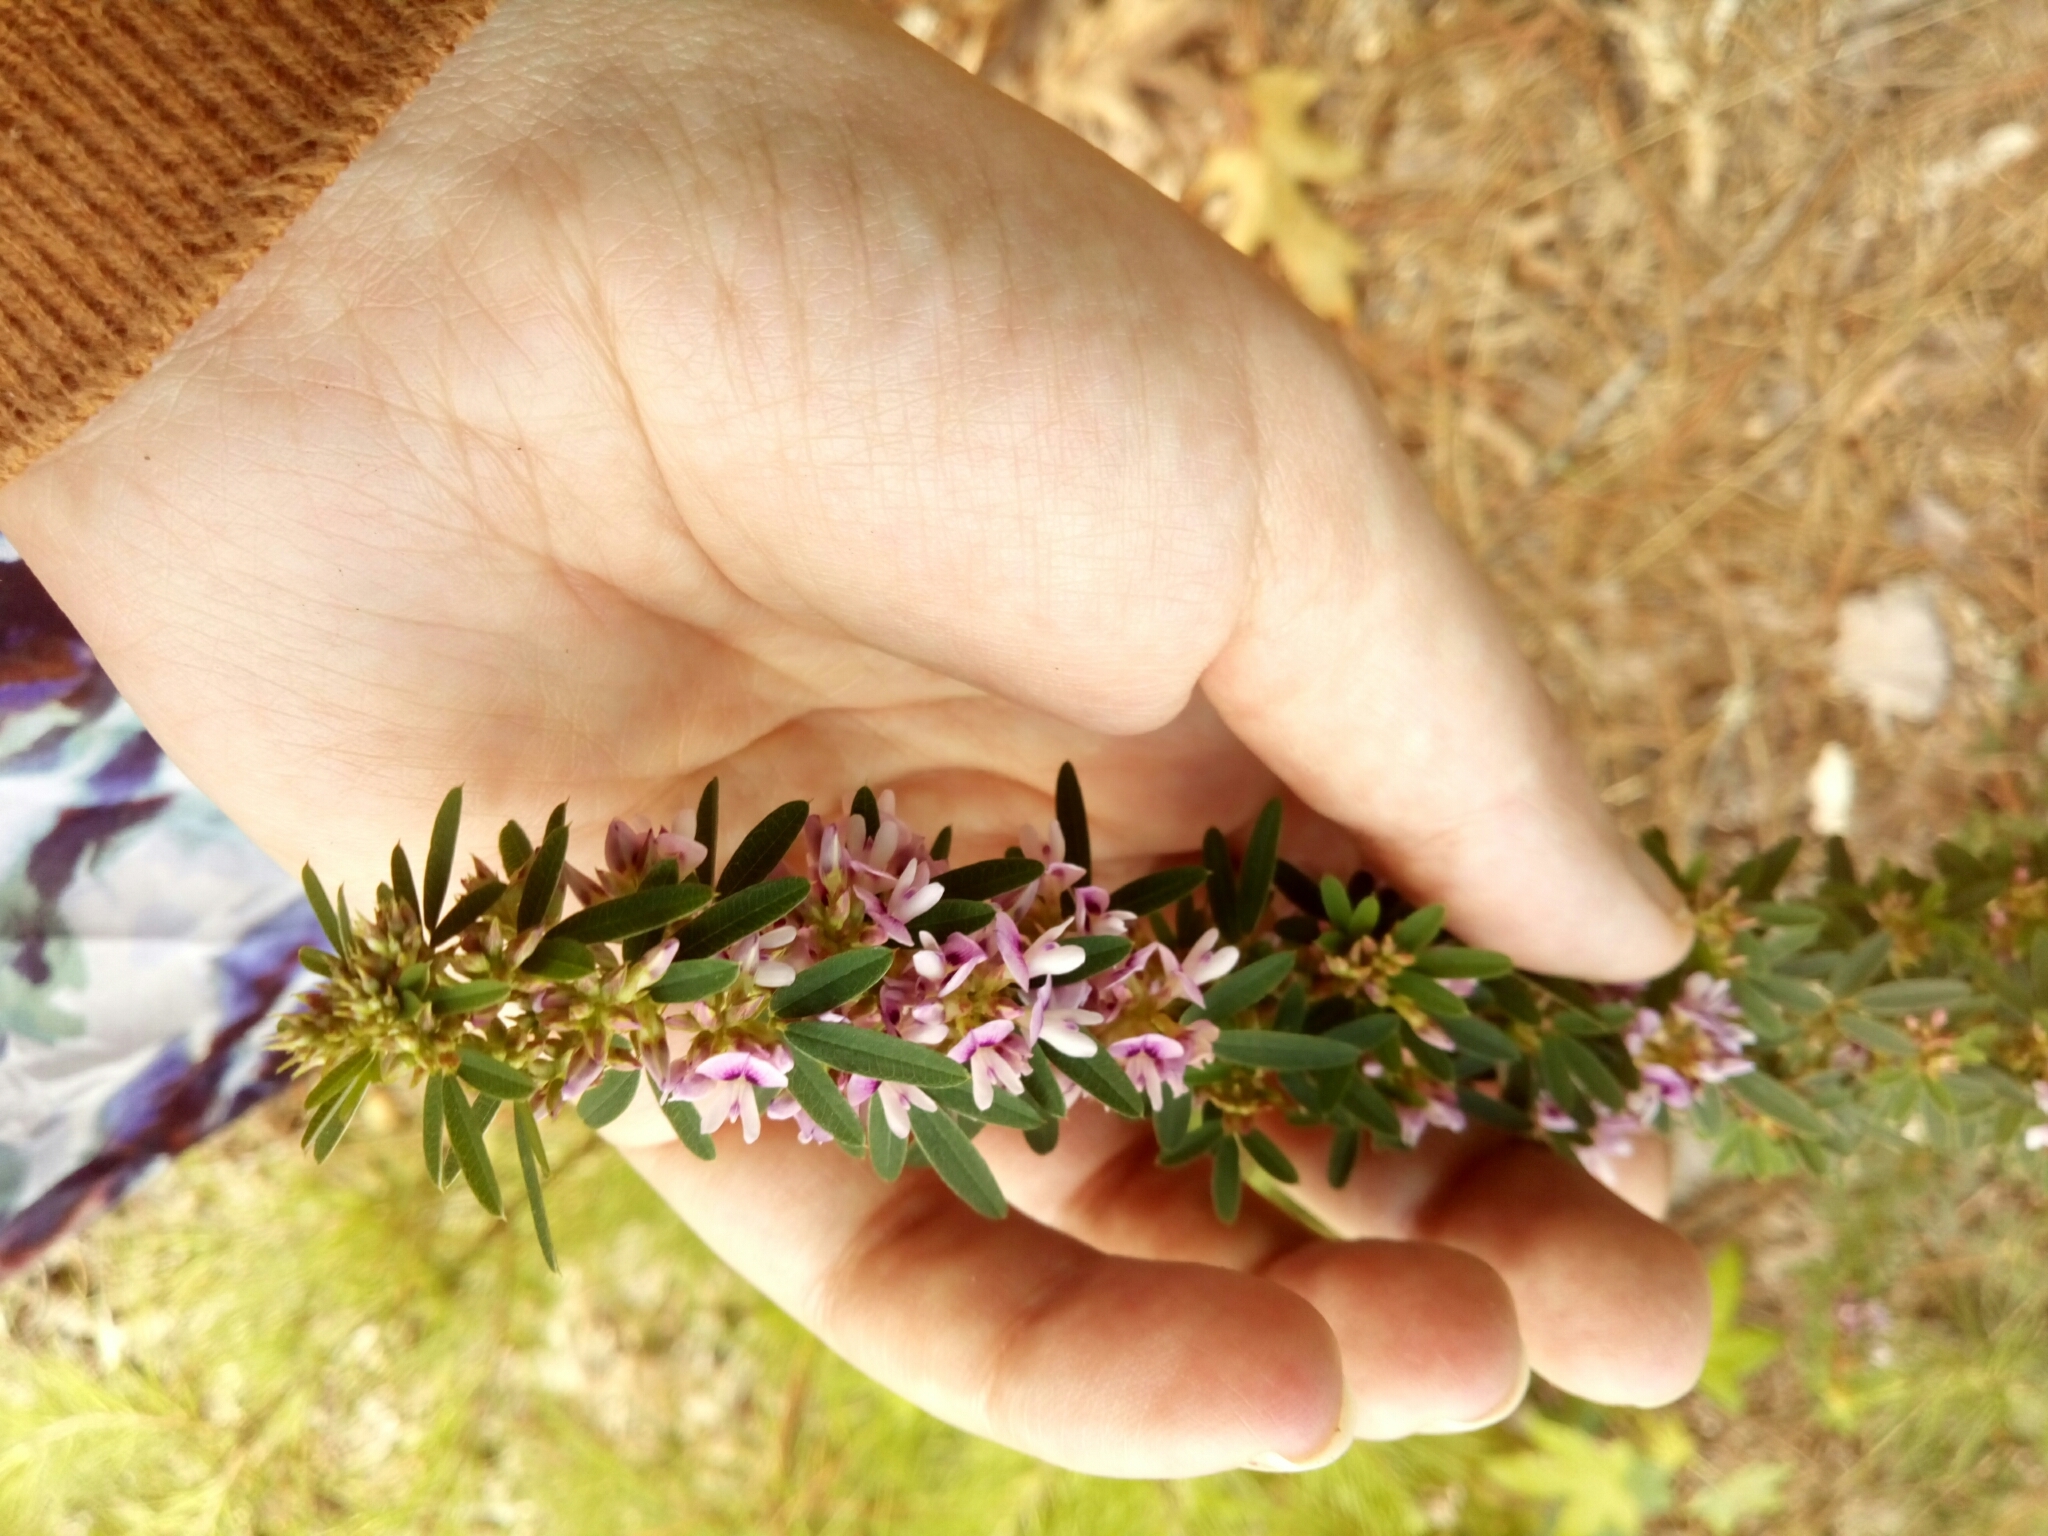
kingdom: Plantae
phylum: Tracheophyta
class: Magnoliopsida
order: Fabales
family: Fabaceae
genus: Lespedeza
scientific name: Lespedeza virginica
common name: Slender bush-clover
